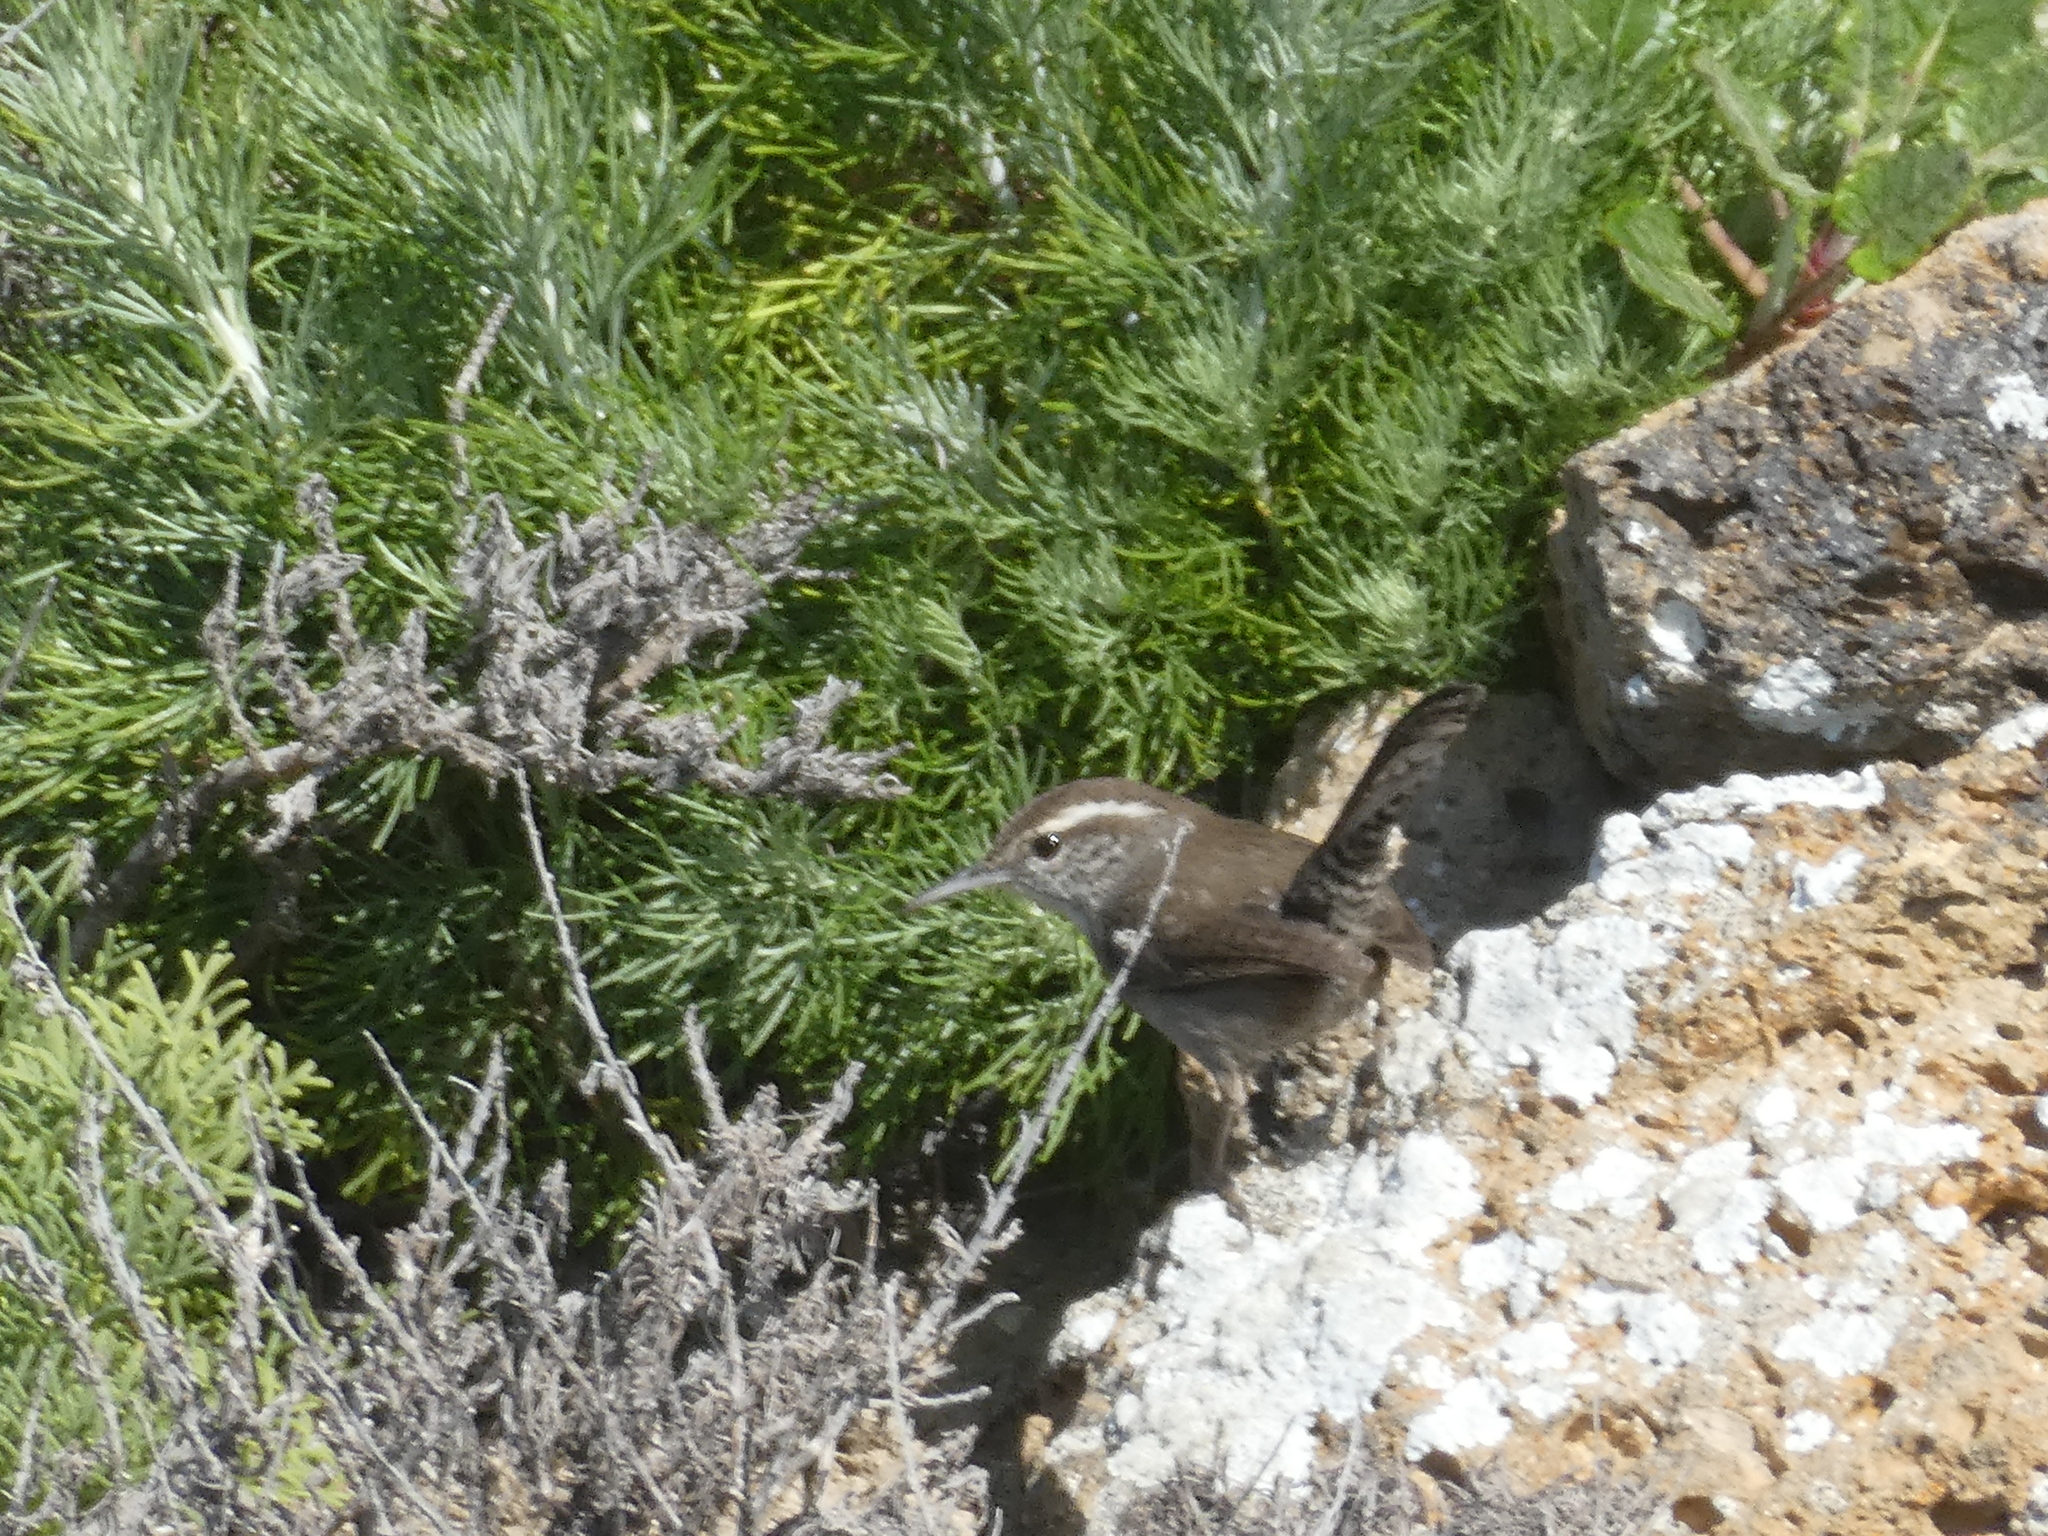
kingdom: Animalia
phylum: Chordata
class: Aves
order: Passeriformes
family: Troglodytidae
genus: Thryomanes
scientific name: Thryomanes bewickii
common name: Bewick's wren
